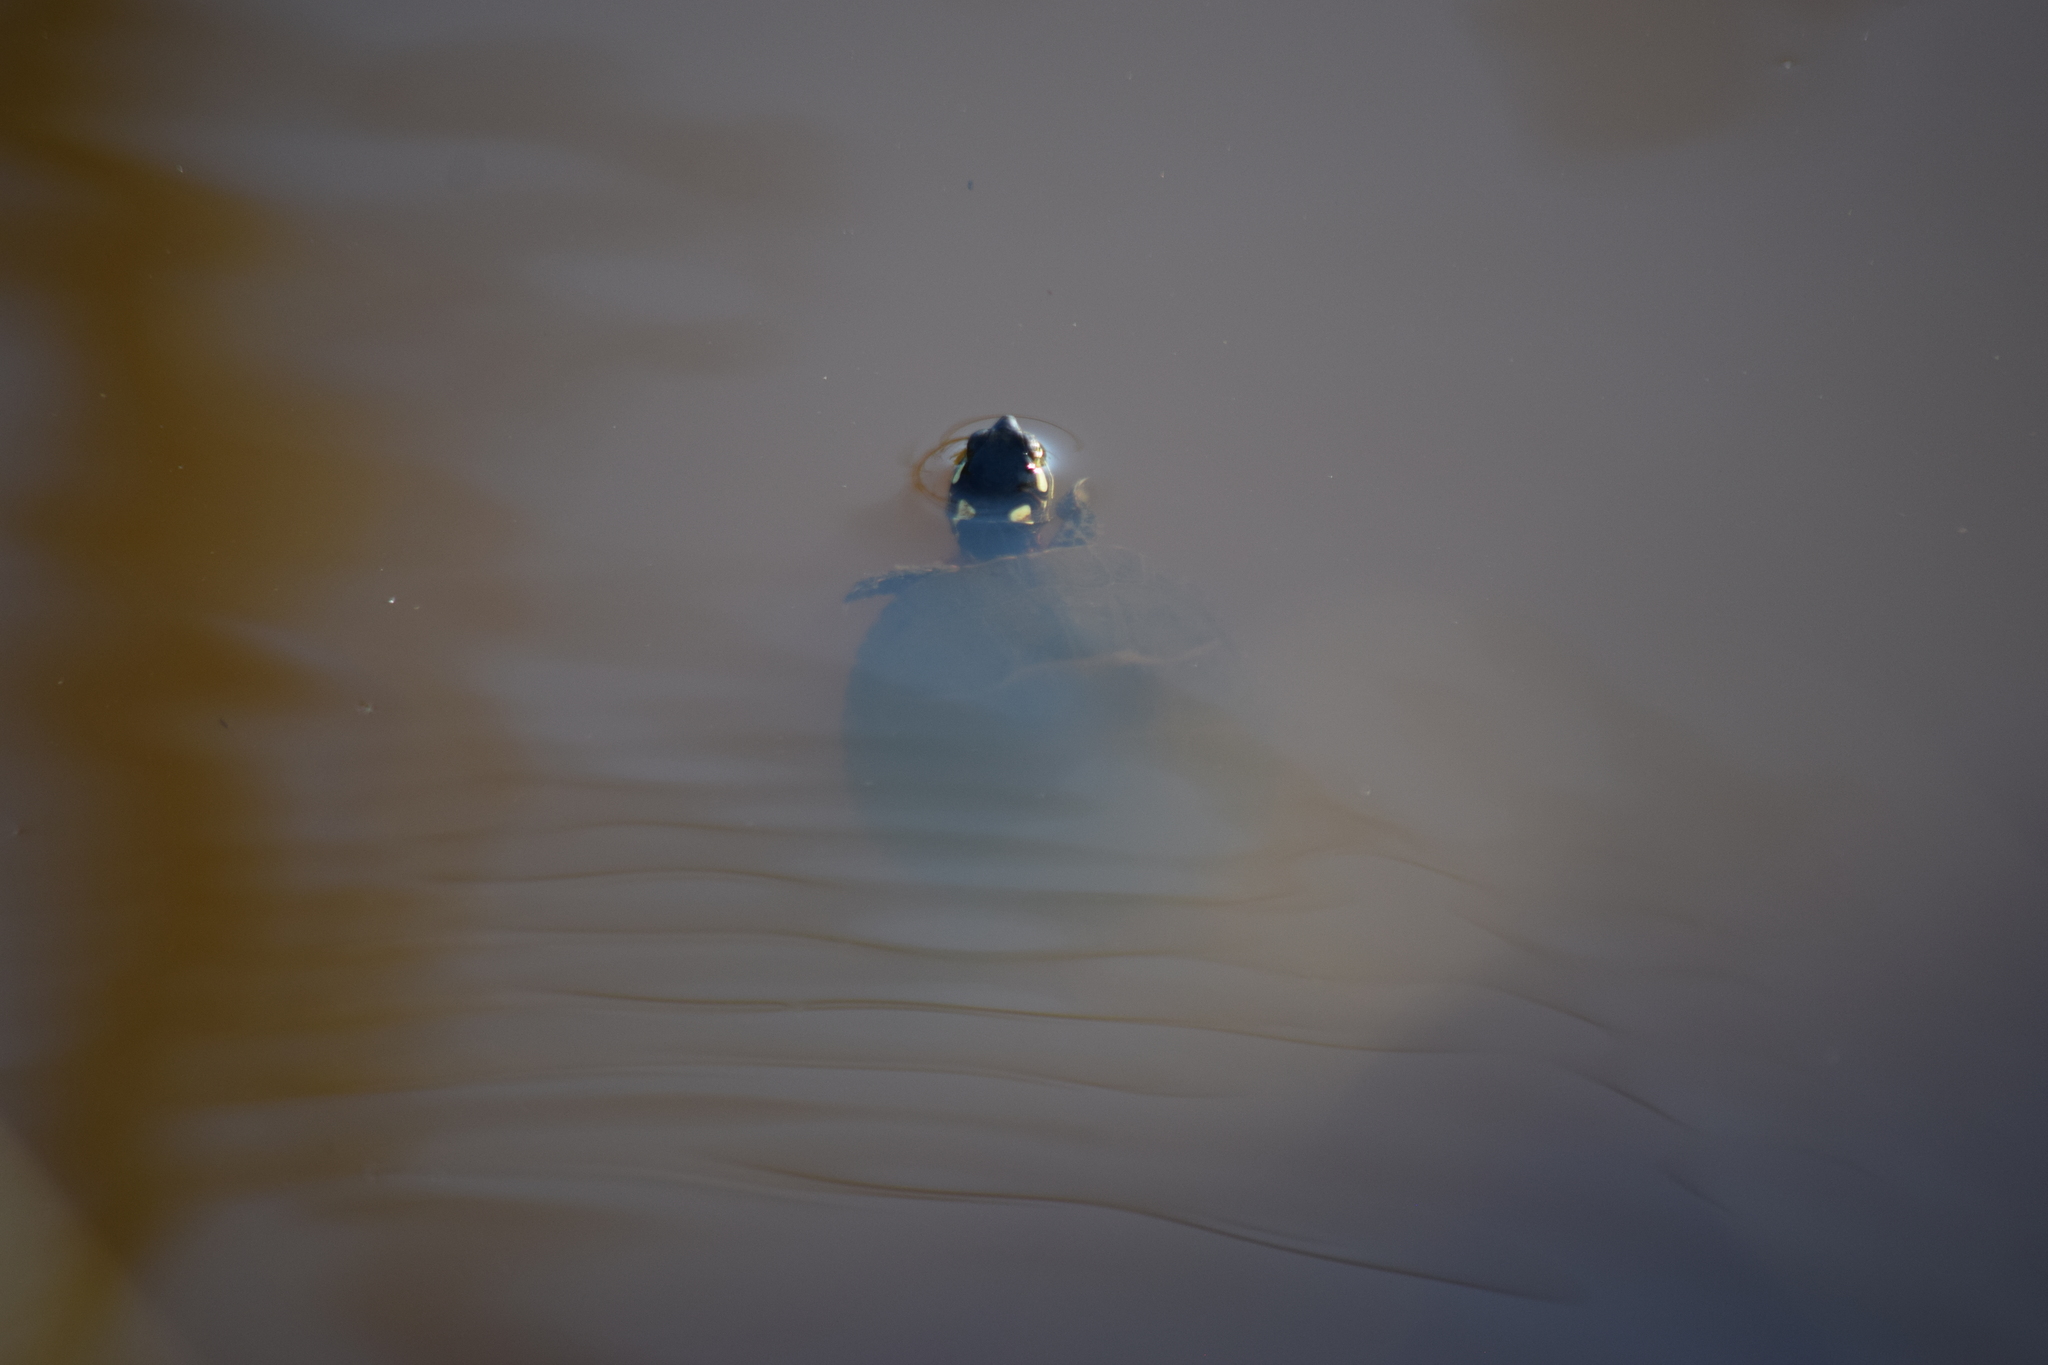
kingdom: Animalia
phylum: Chordata
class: Testudines
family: Emydidae
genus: Chrysemys
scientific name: Chrysemys picta
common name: Painted turtle
